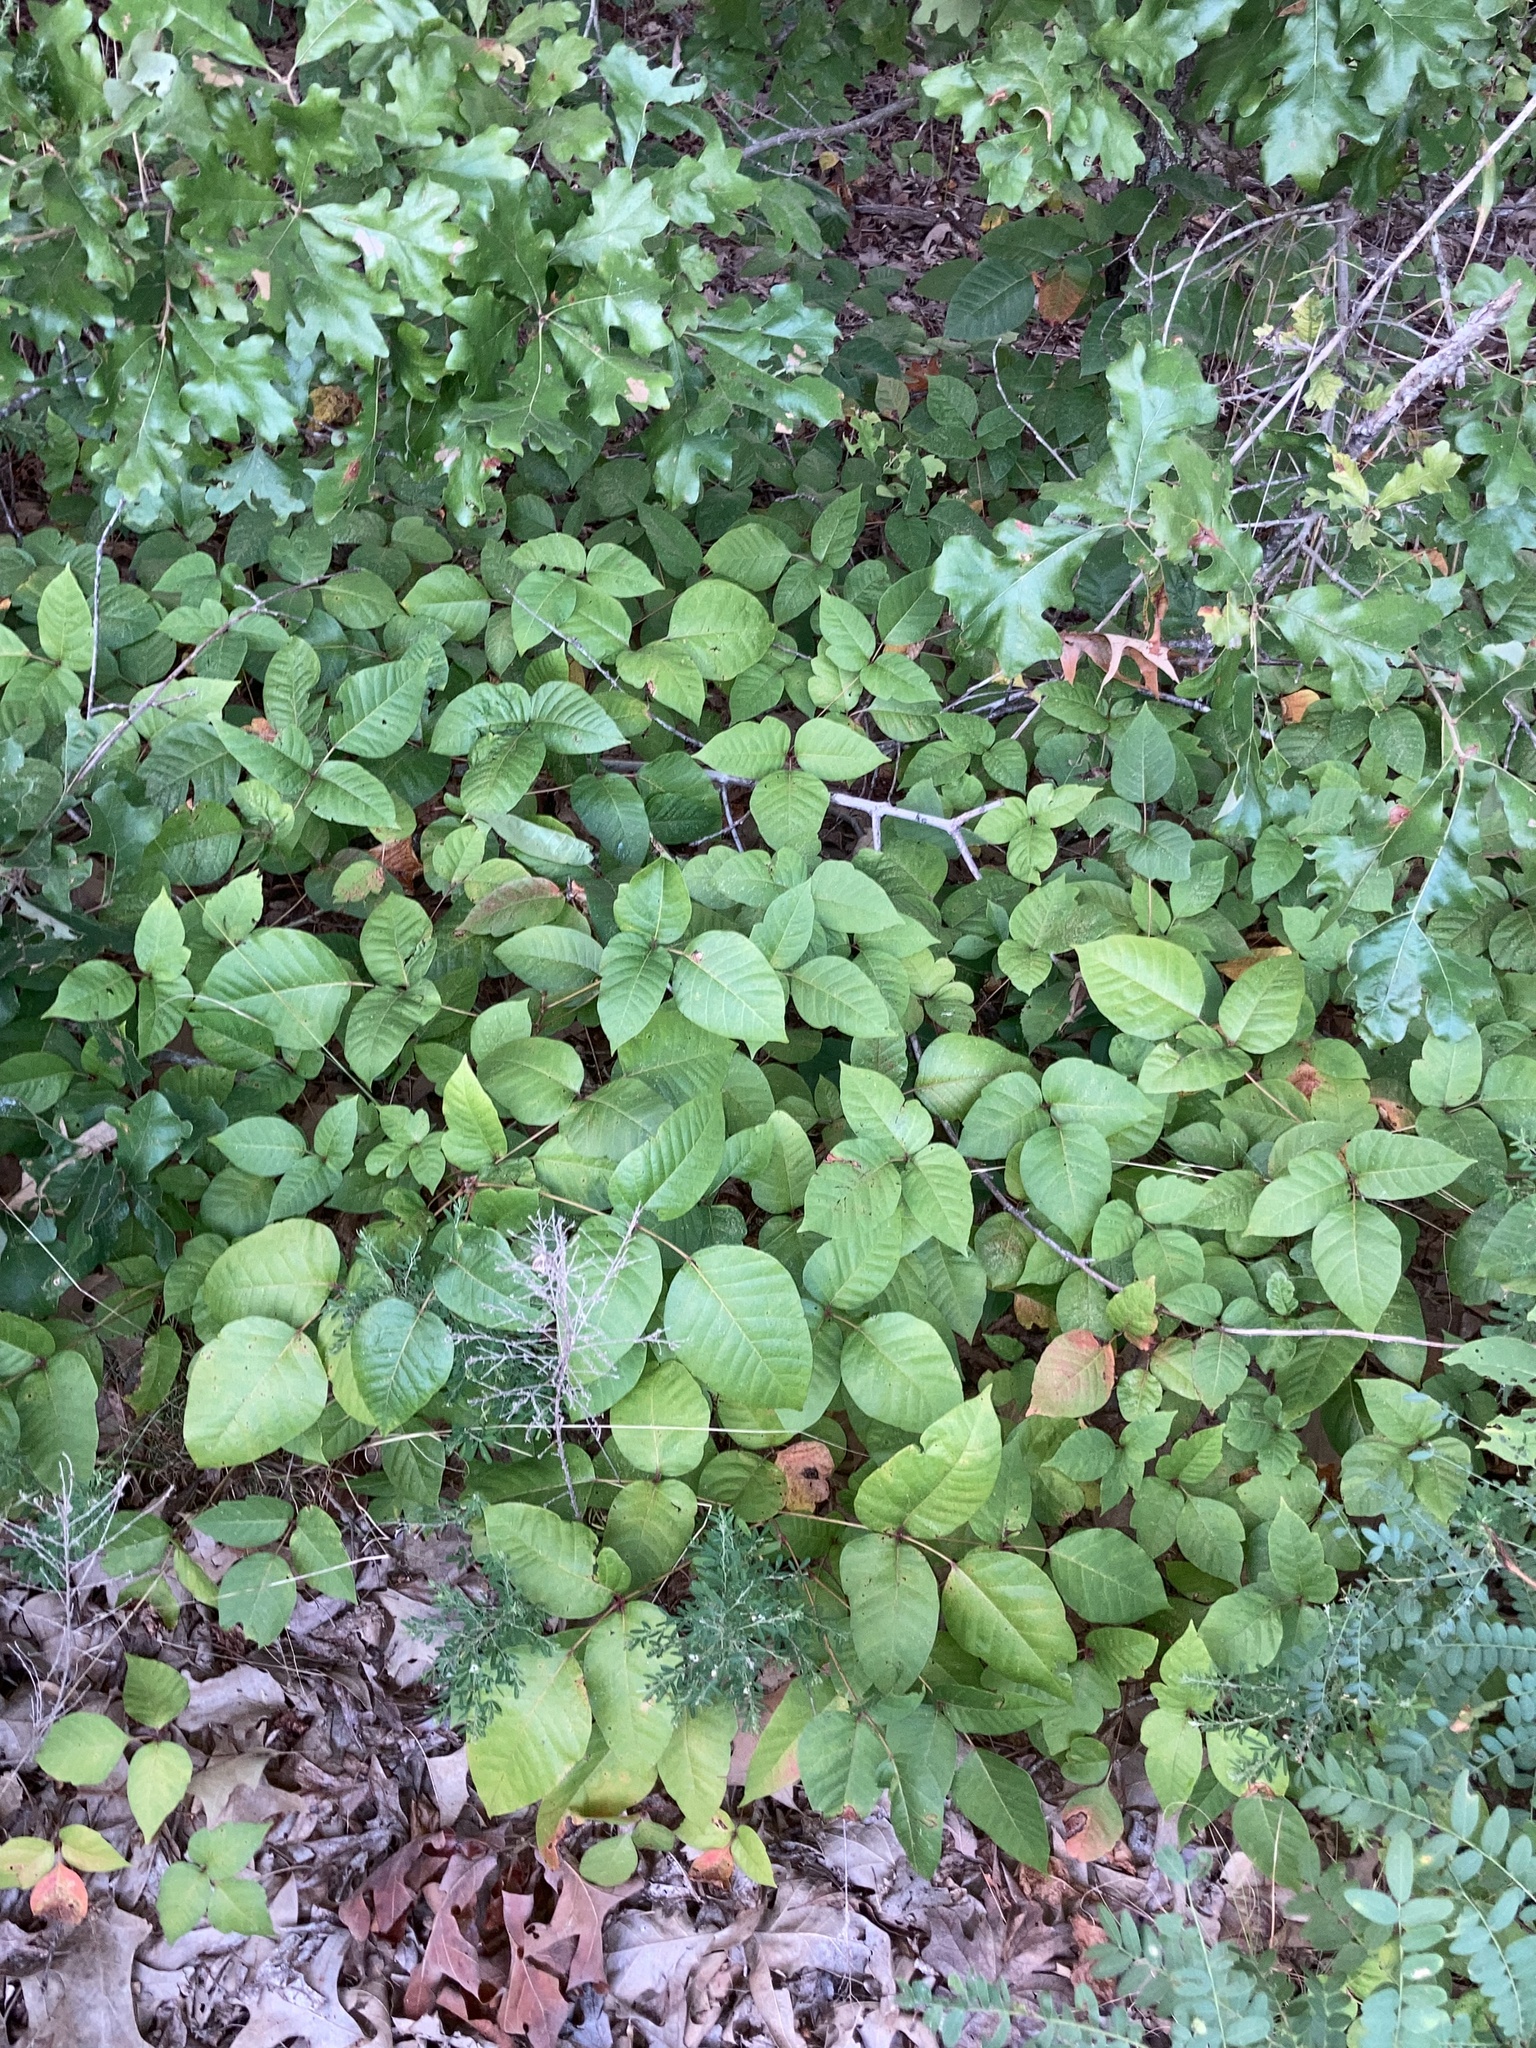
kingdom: Plantae
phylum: Tracheophyta
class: Magnoliopsida
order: Sapindales
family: Anacardiaceae
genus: Toxicodendron
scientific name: Toxicodendron radicans
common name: Poison ivy
